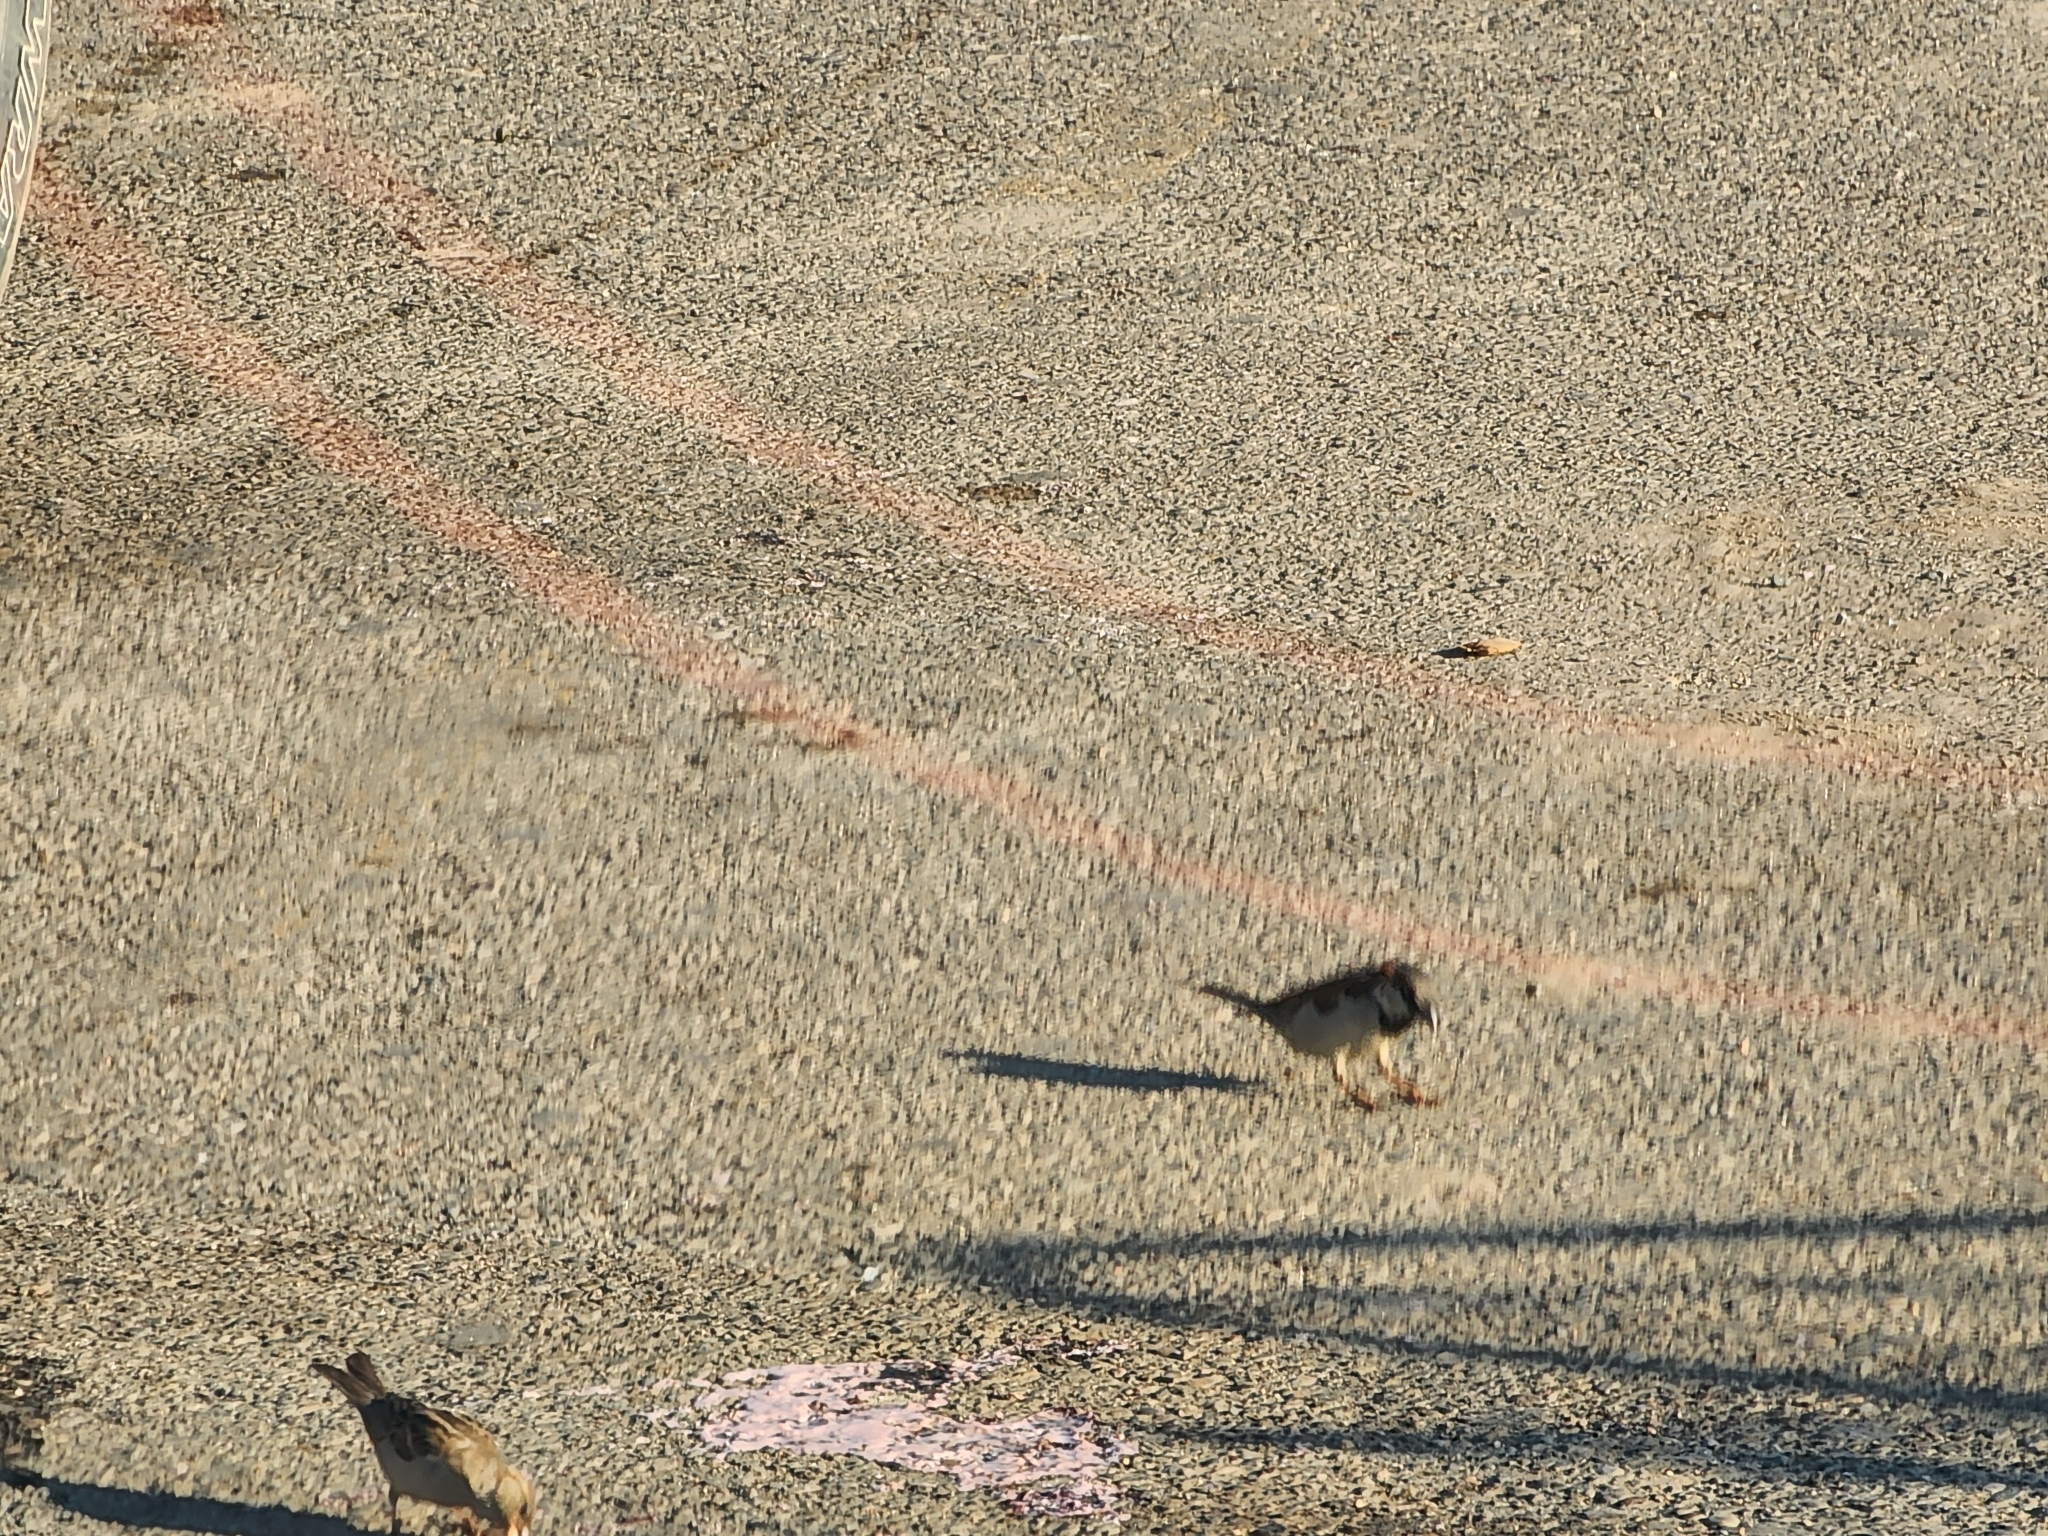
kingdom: Animalia
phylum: Chordata
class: Aves
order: Passeriformes
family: Passeridae
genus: Passer
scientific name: Passer domesticus
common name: House sparrow
